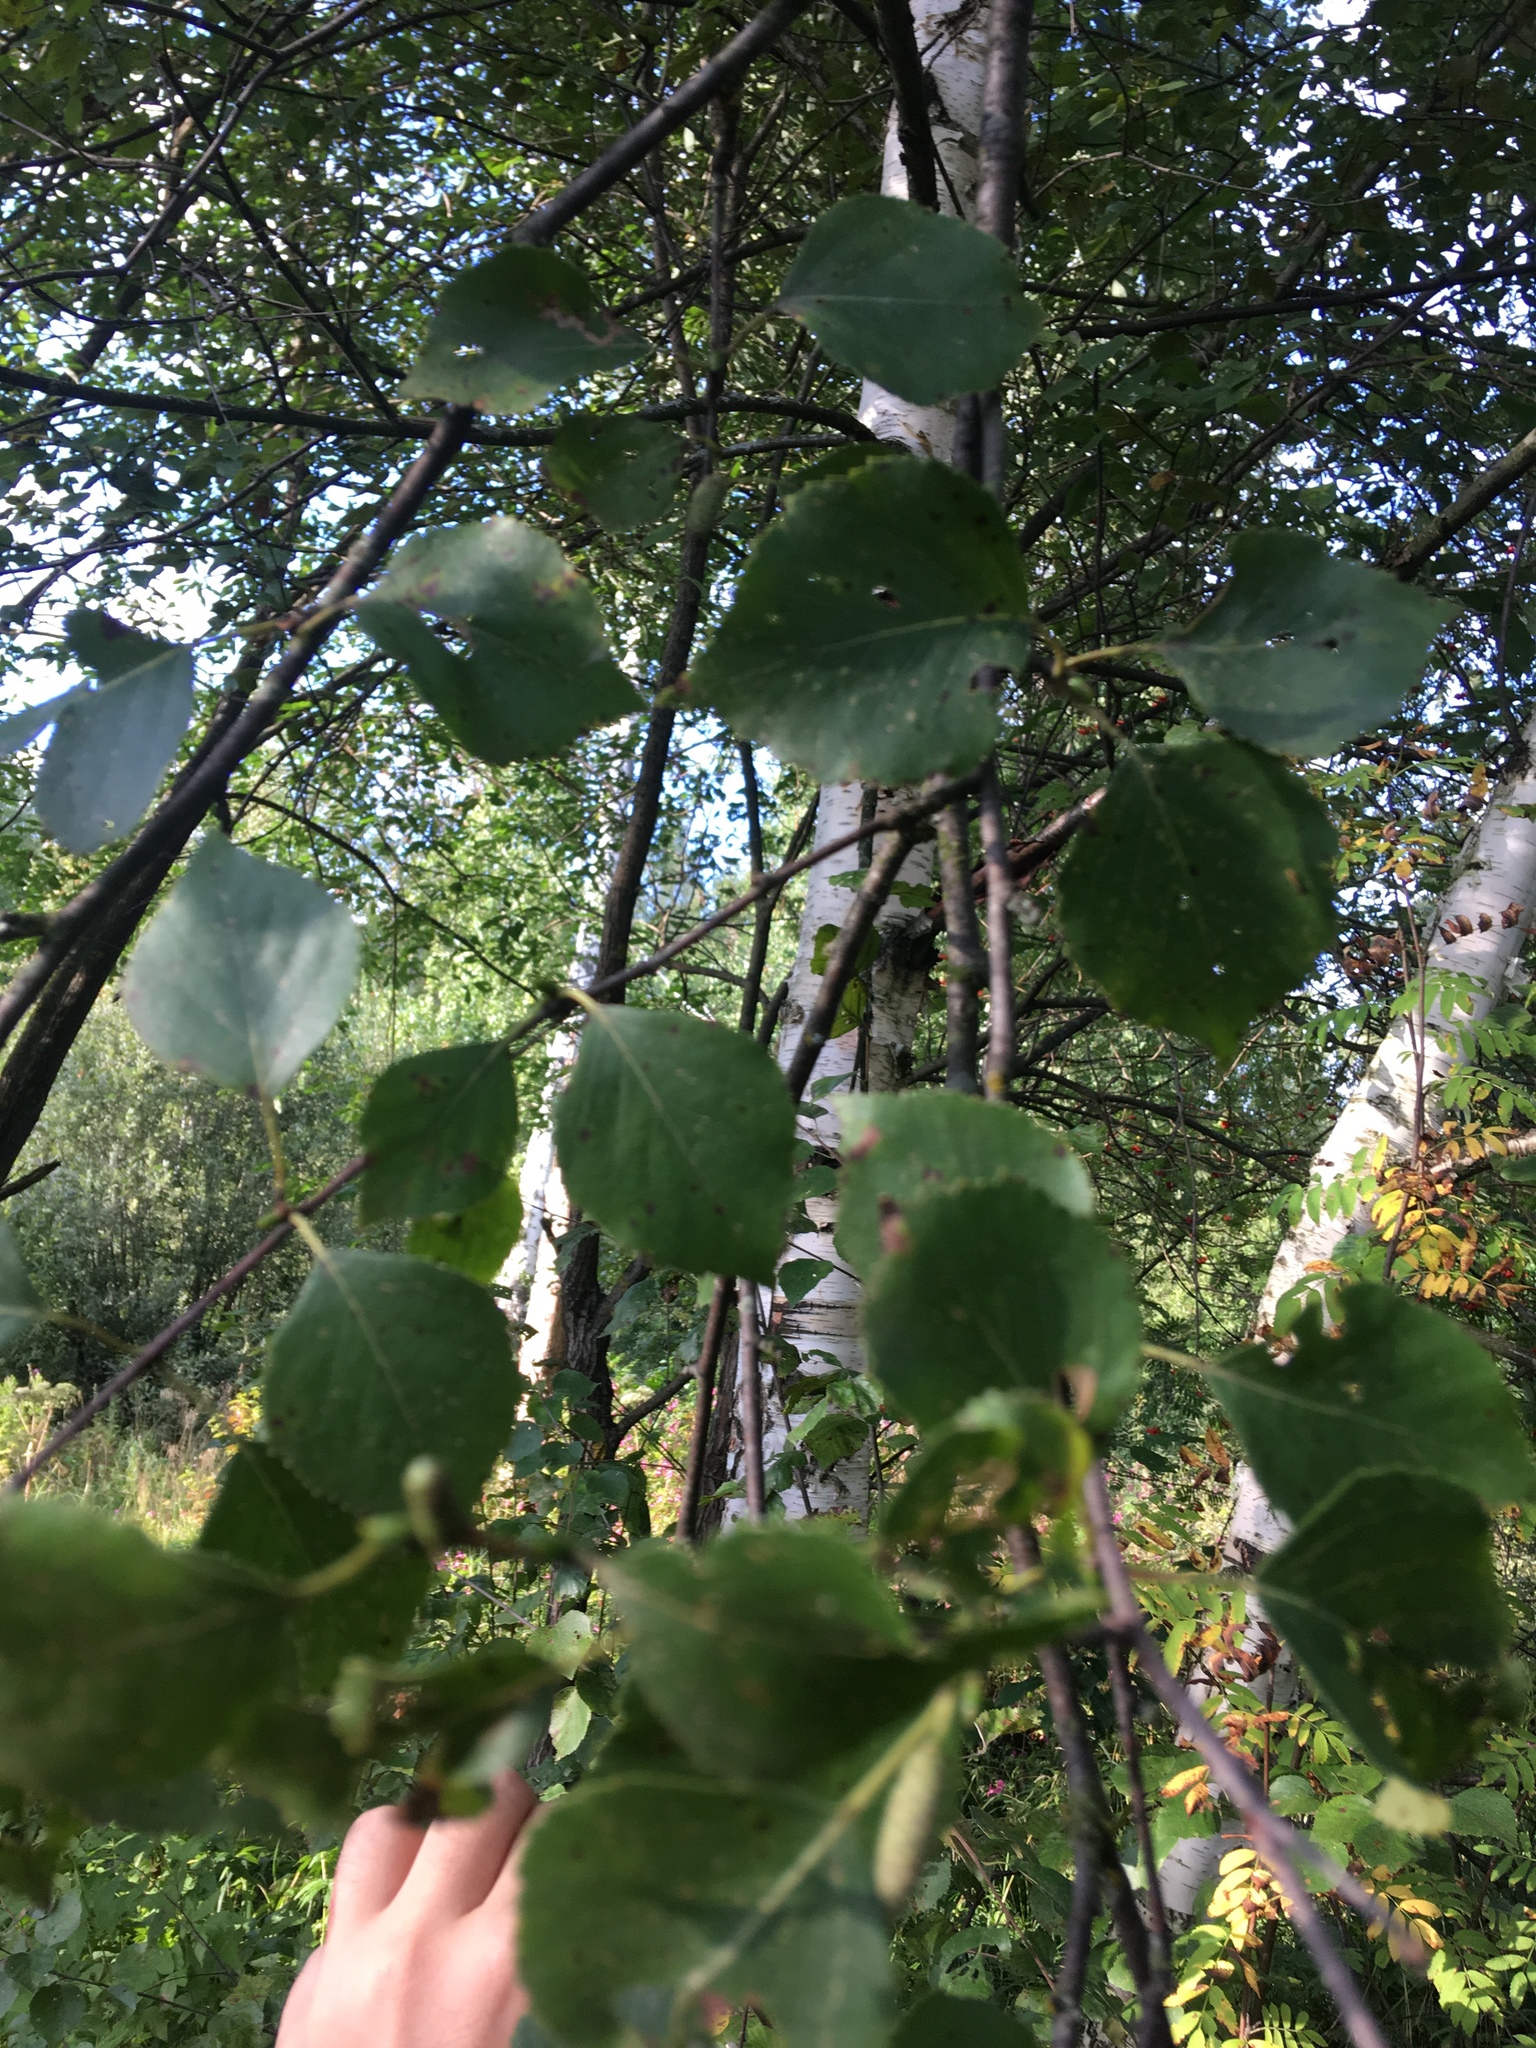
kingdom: Plantae
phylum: Tracheophyta
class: Magnoliopsida
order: Fagales
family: Betulaceae
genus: Betula
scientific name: Betula pubescens
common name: Downy birch
